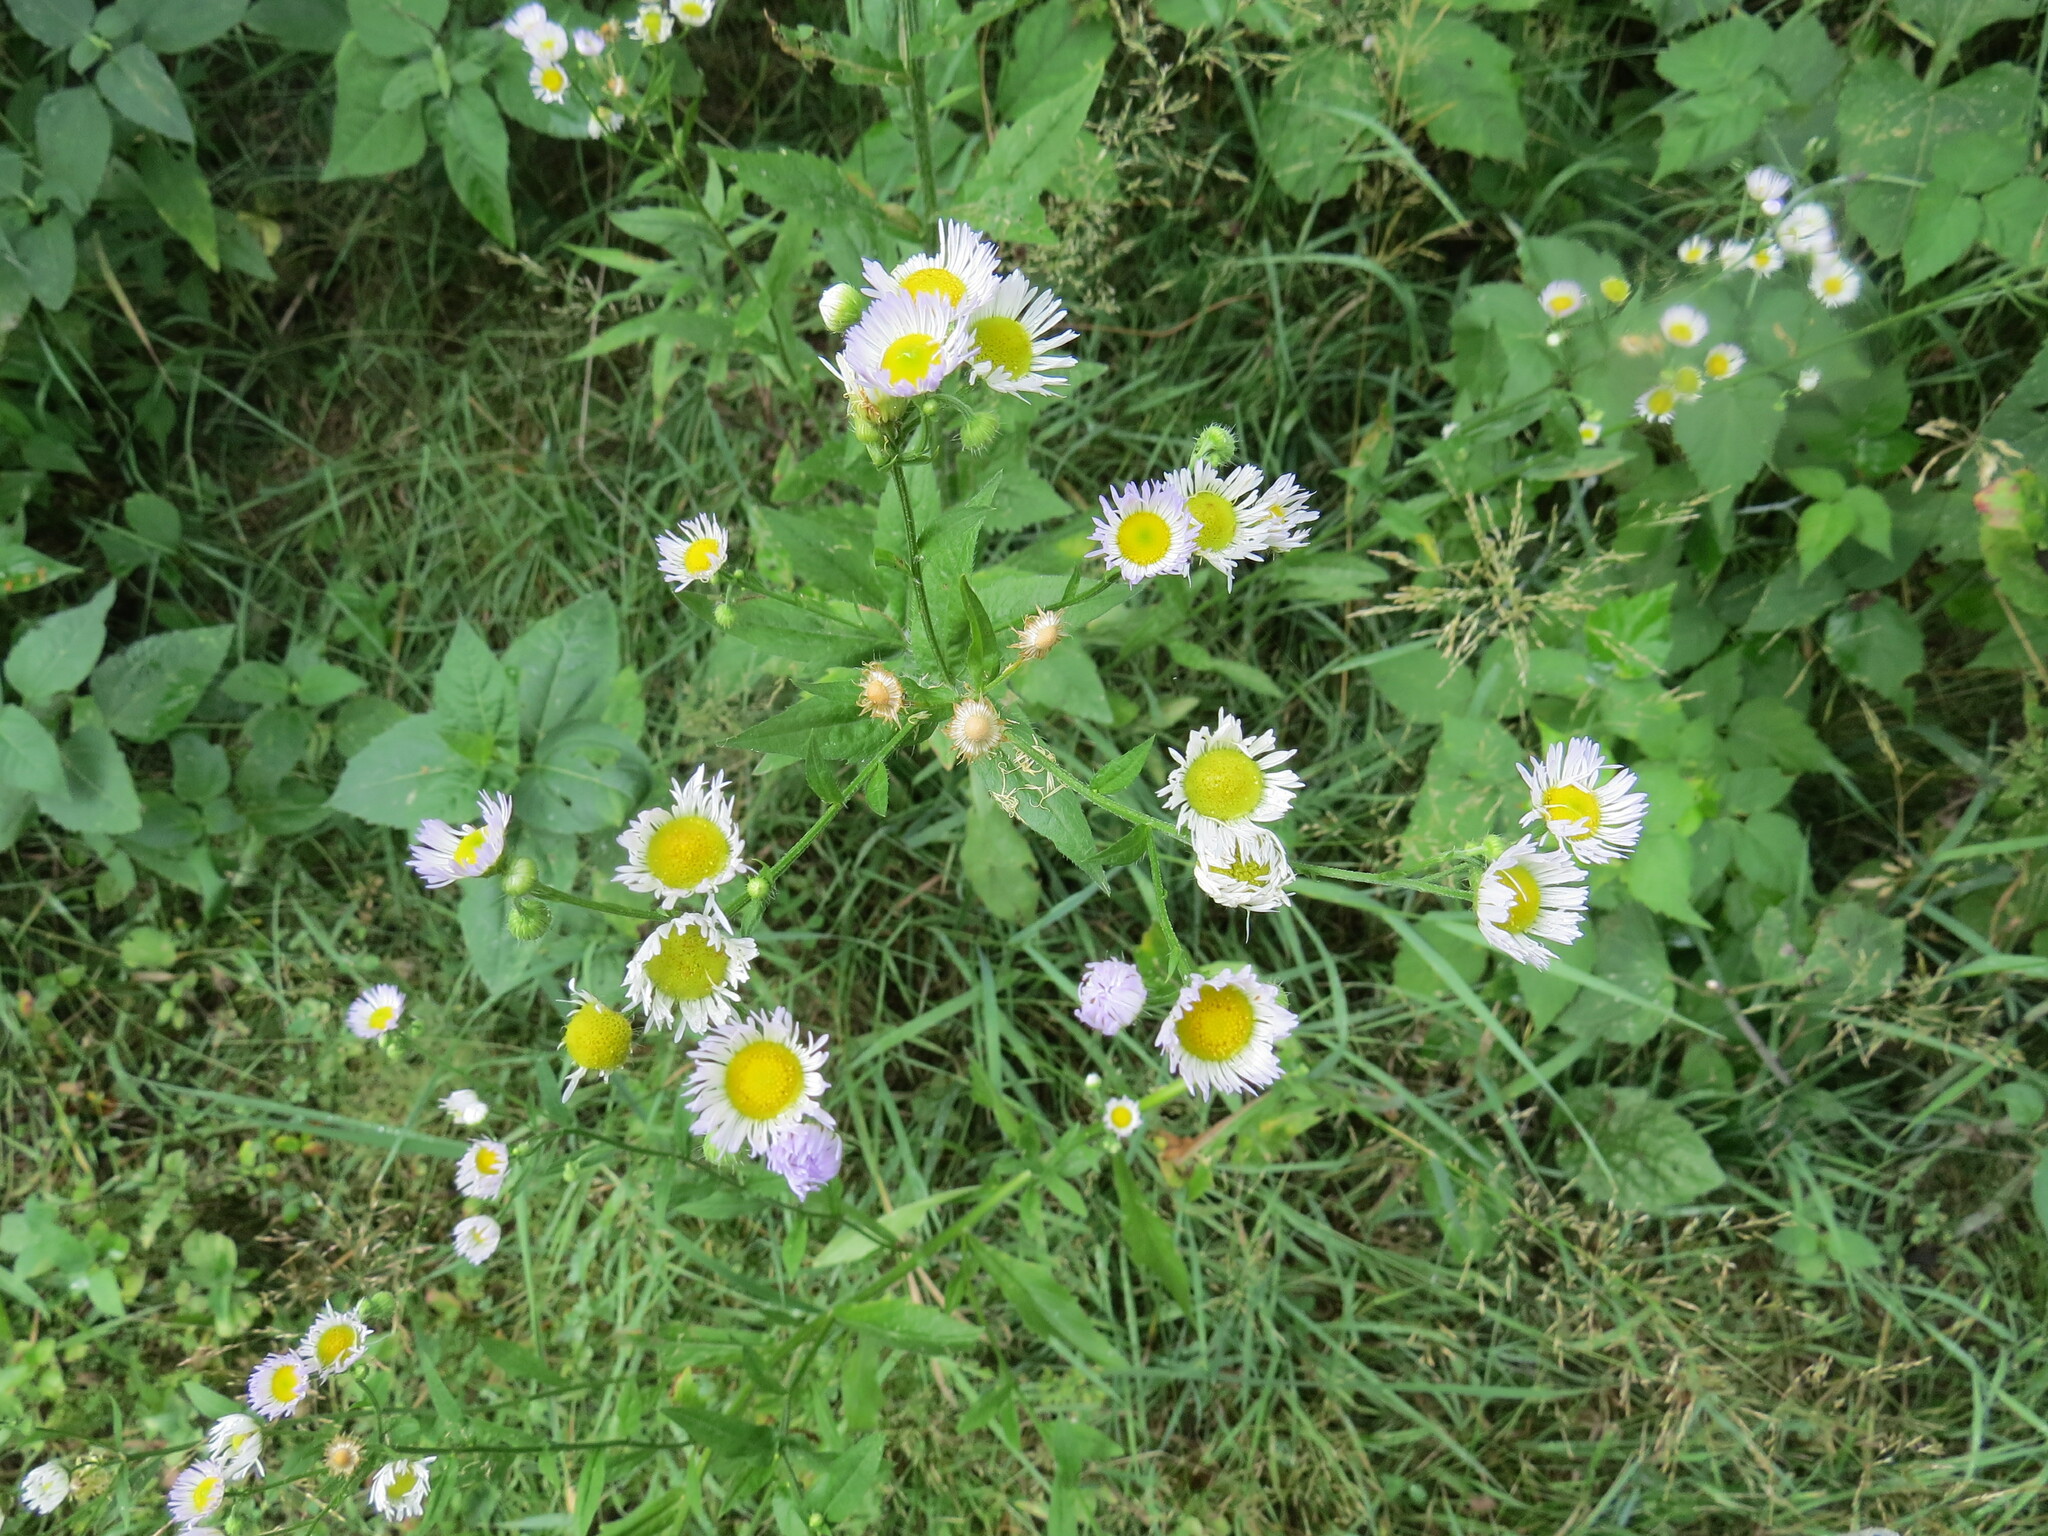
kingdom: Plantae
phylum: Tracheophyta
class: Magnoliopsida
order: Asterales
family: Asteraceae
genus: Erigeron
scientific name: Erigeron annuus
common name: Tall fleabane
